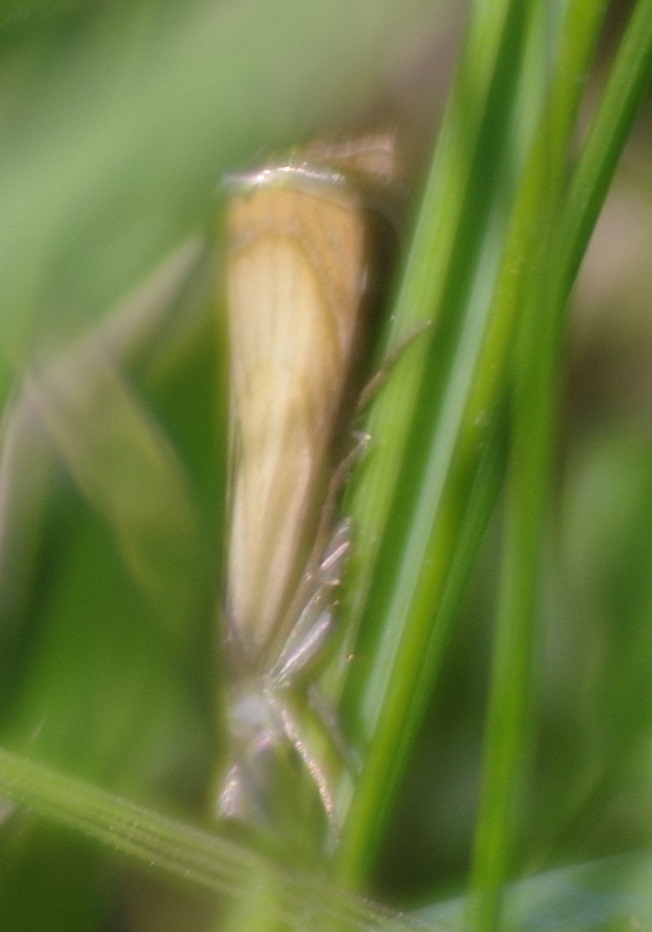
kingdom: Animalia
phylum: Arthropoda
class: Insecta
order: Lepidoptera
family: Crambidae
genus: Chrysoteuchia
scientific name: Chrysoteuchia culmella
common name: Garden grass-veneer
